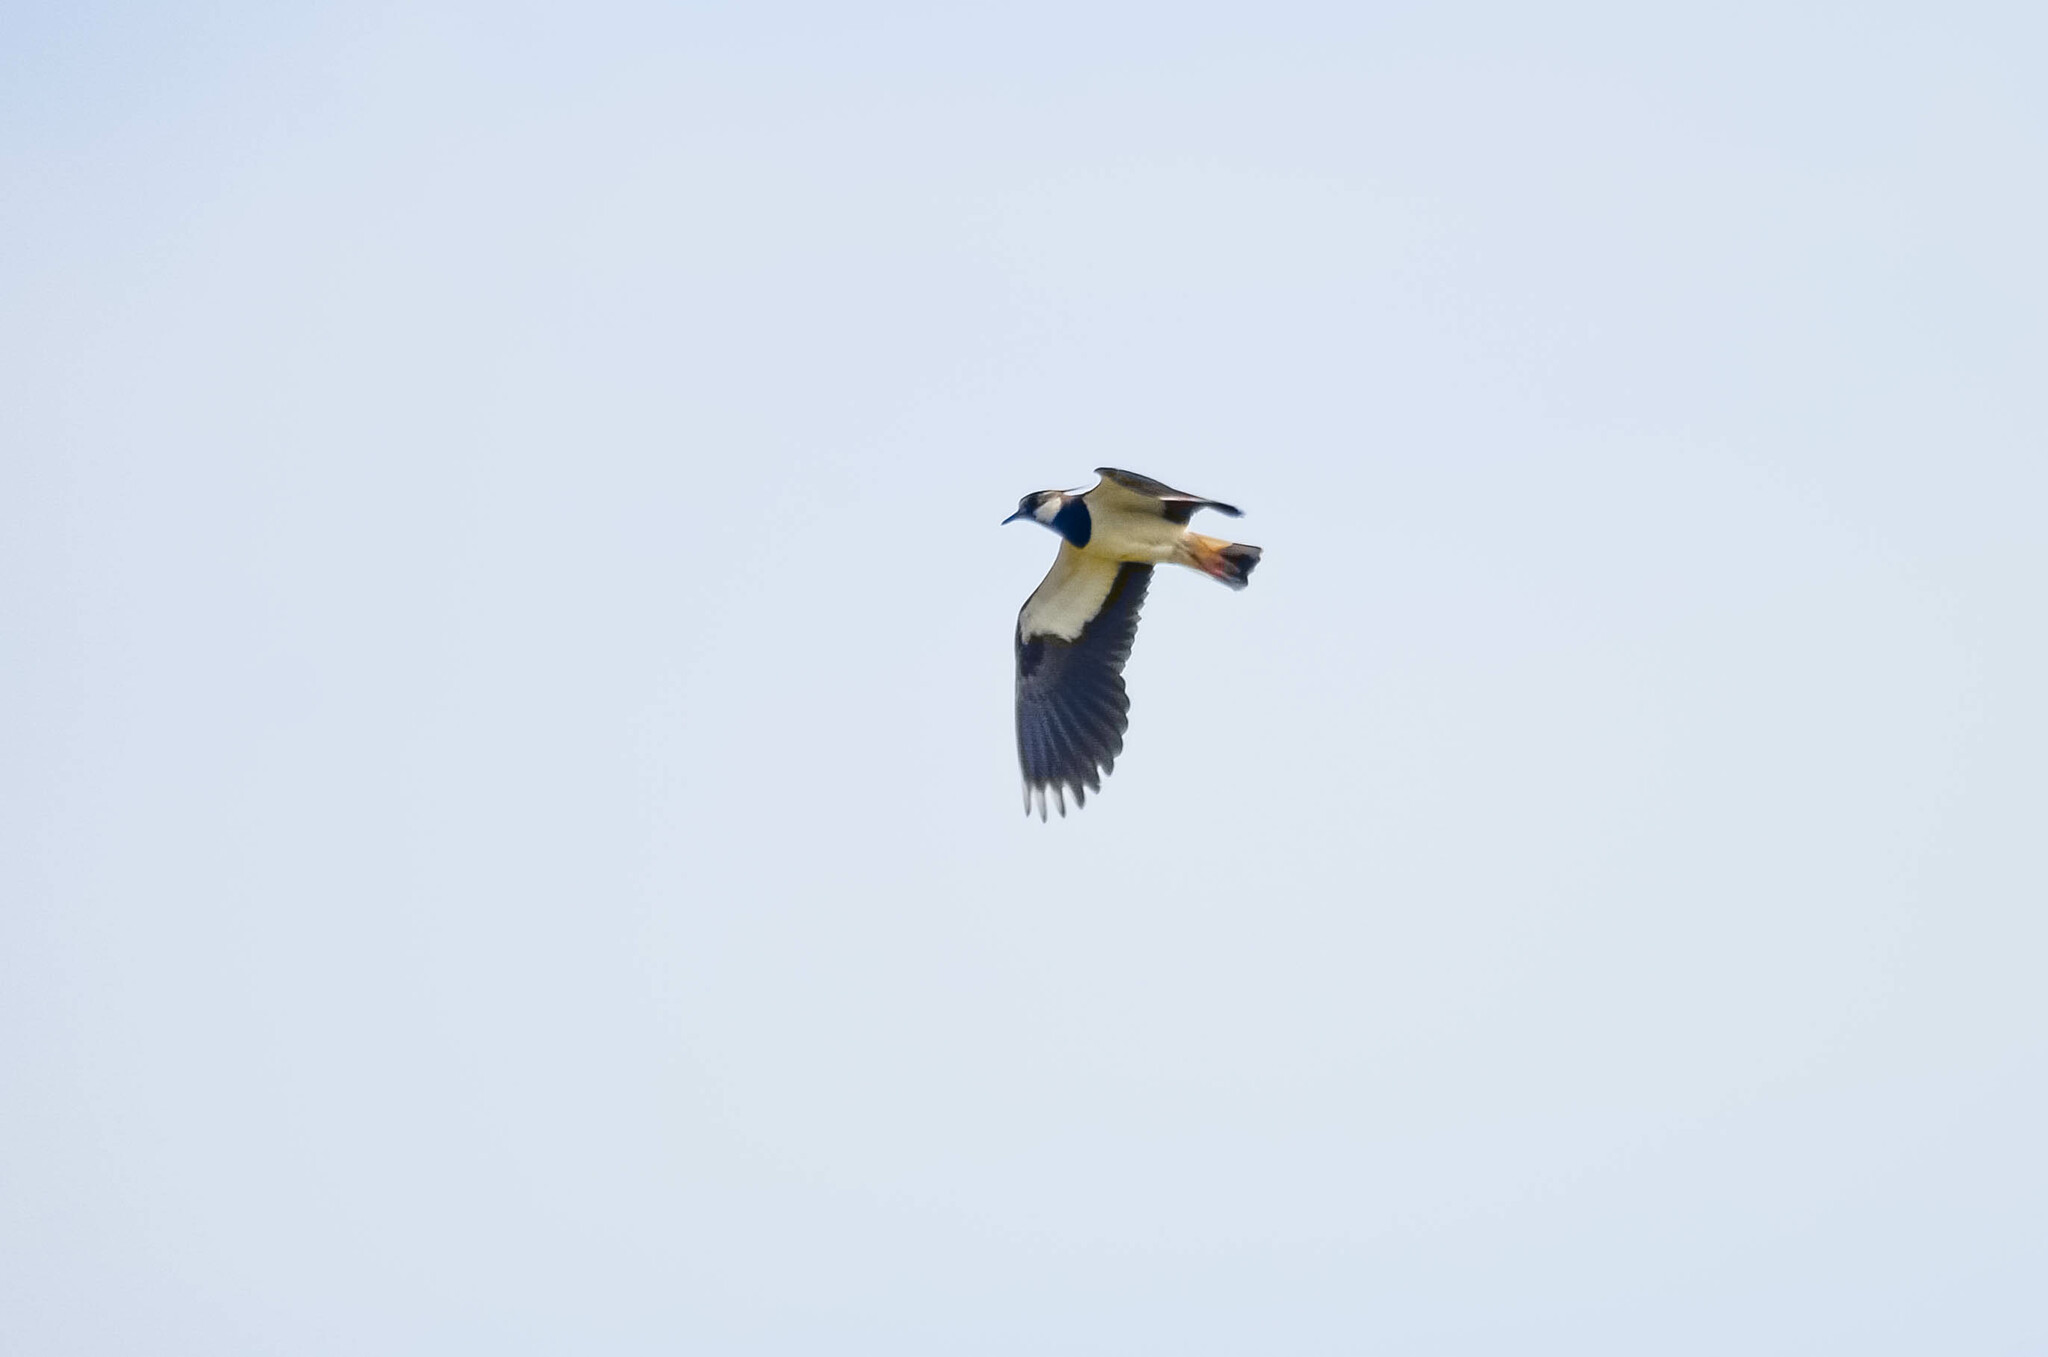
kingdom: Animalia
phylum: Chordata
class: Aves
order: Charadriiformes
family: Charadriidae
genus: Vanellus
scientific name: Vanellus vanellus
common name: Northern lapwing
